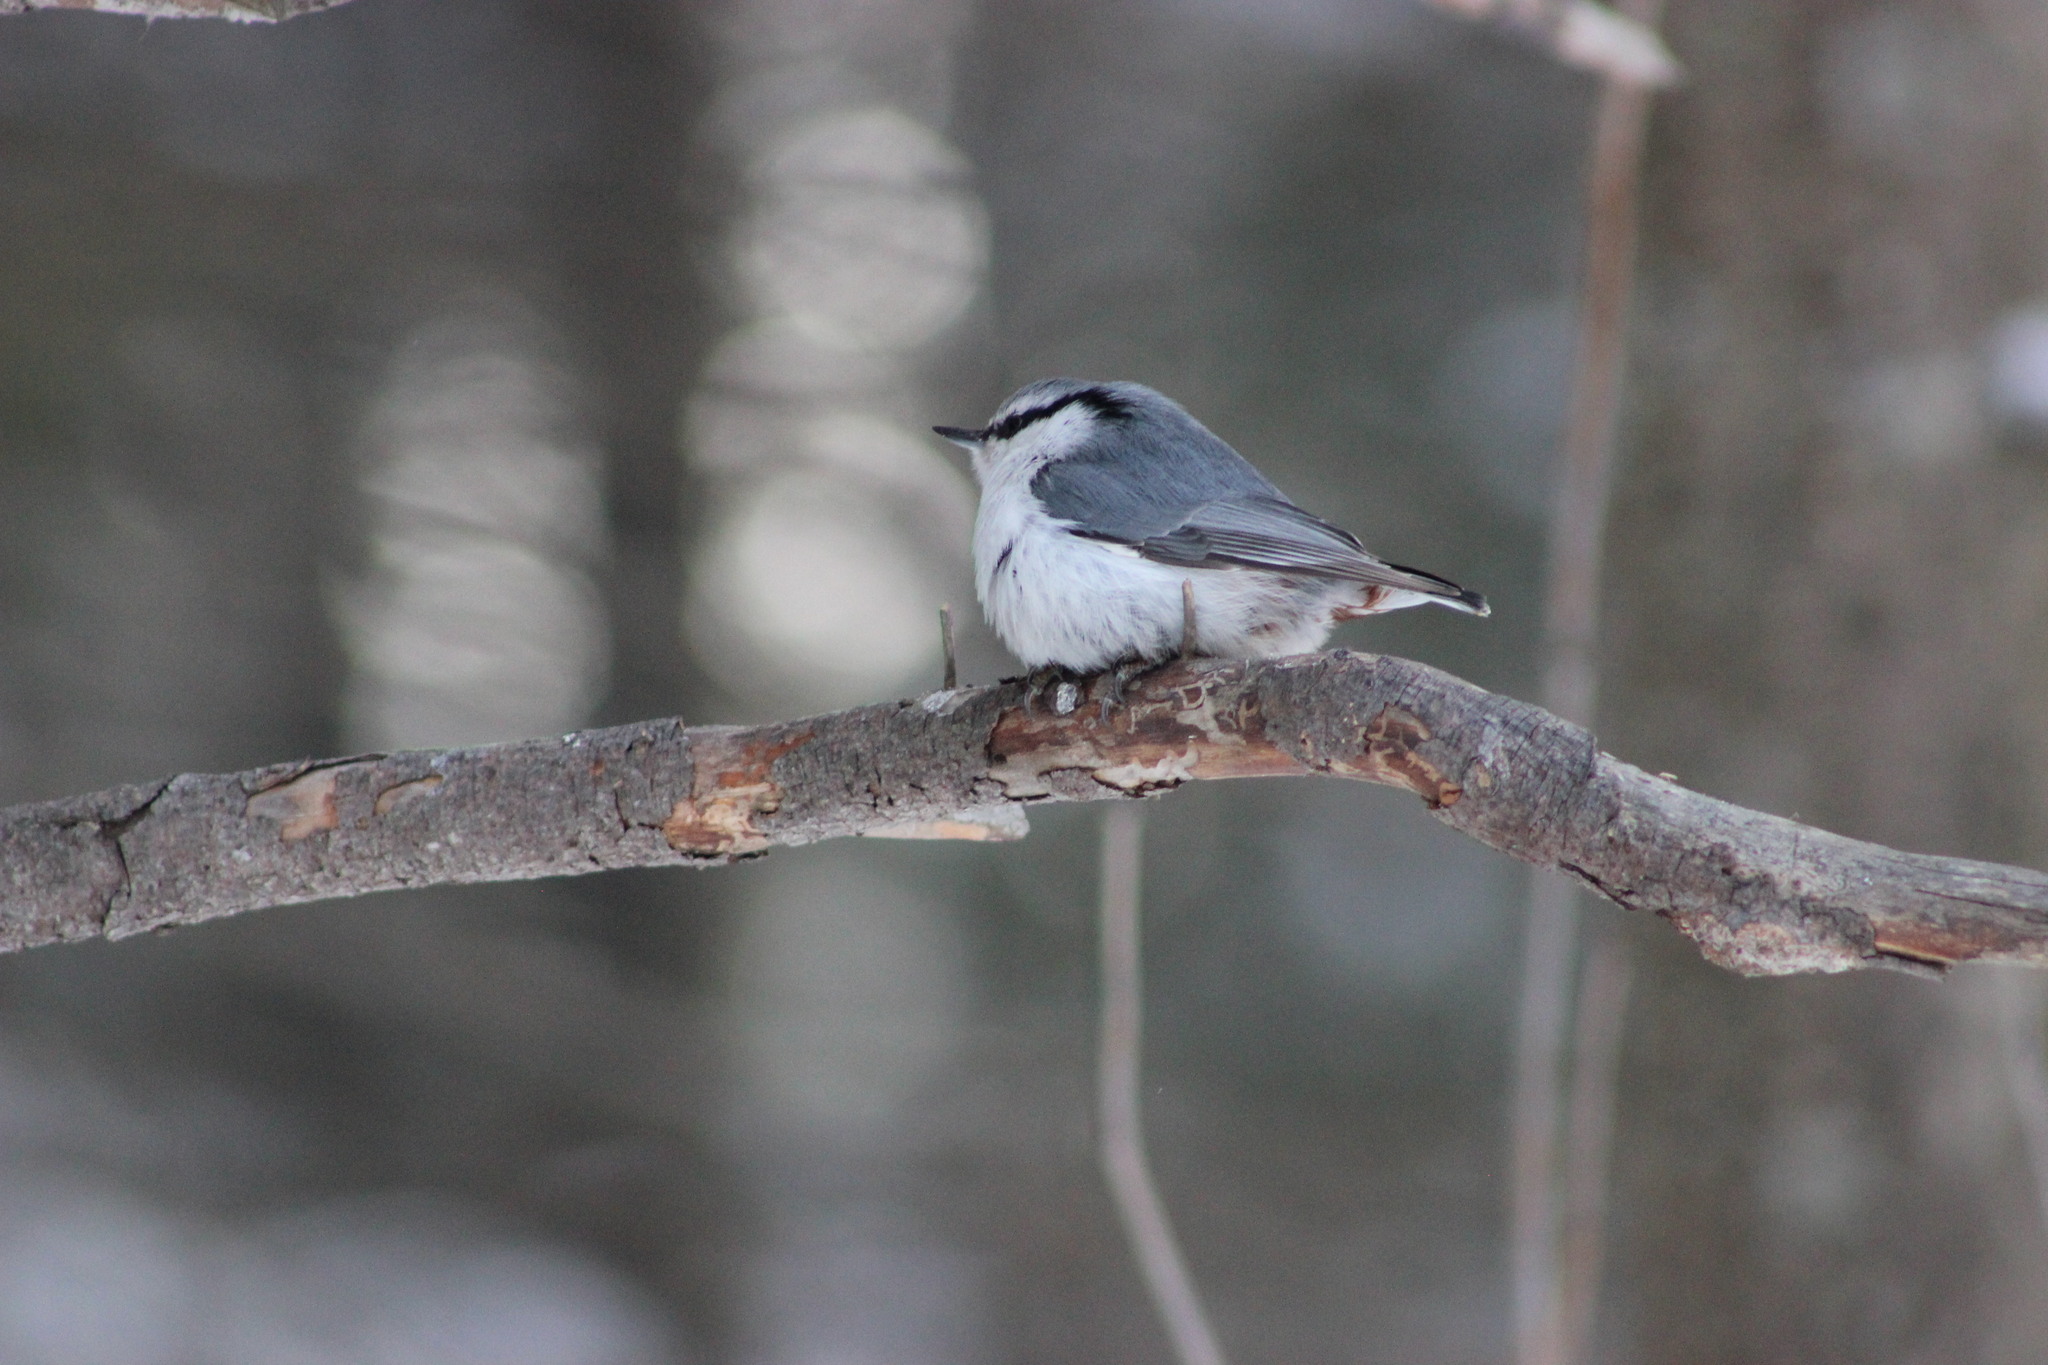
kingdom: Animalia
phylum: Chordata
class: Aves
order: Passeriformes
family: Sittidae
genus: Sitta
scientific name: Sitta europaea
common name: Eurasian nuthatch
